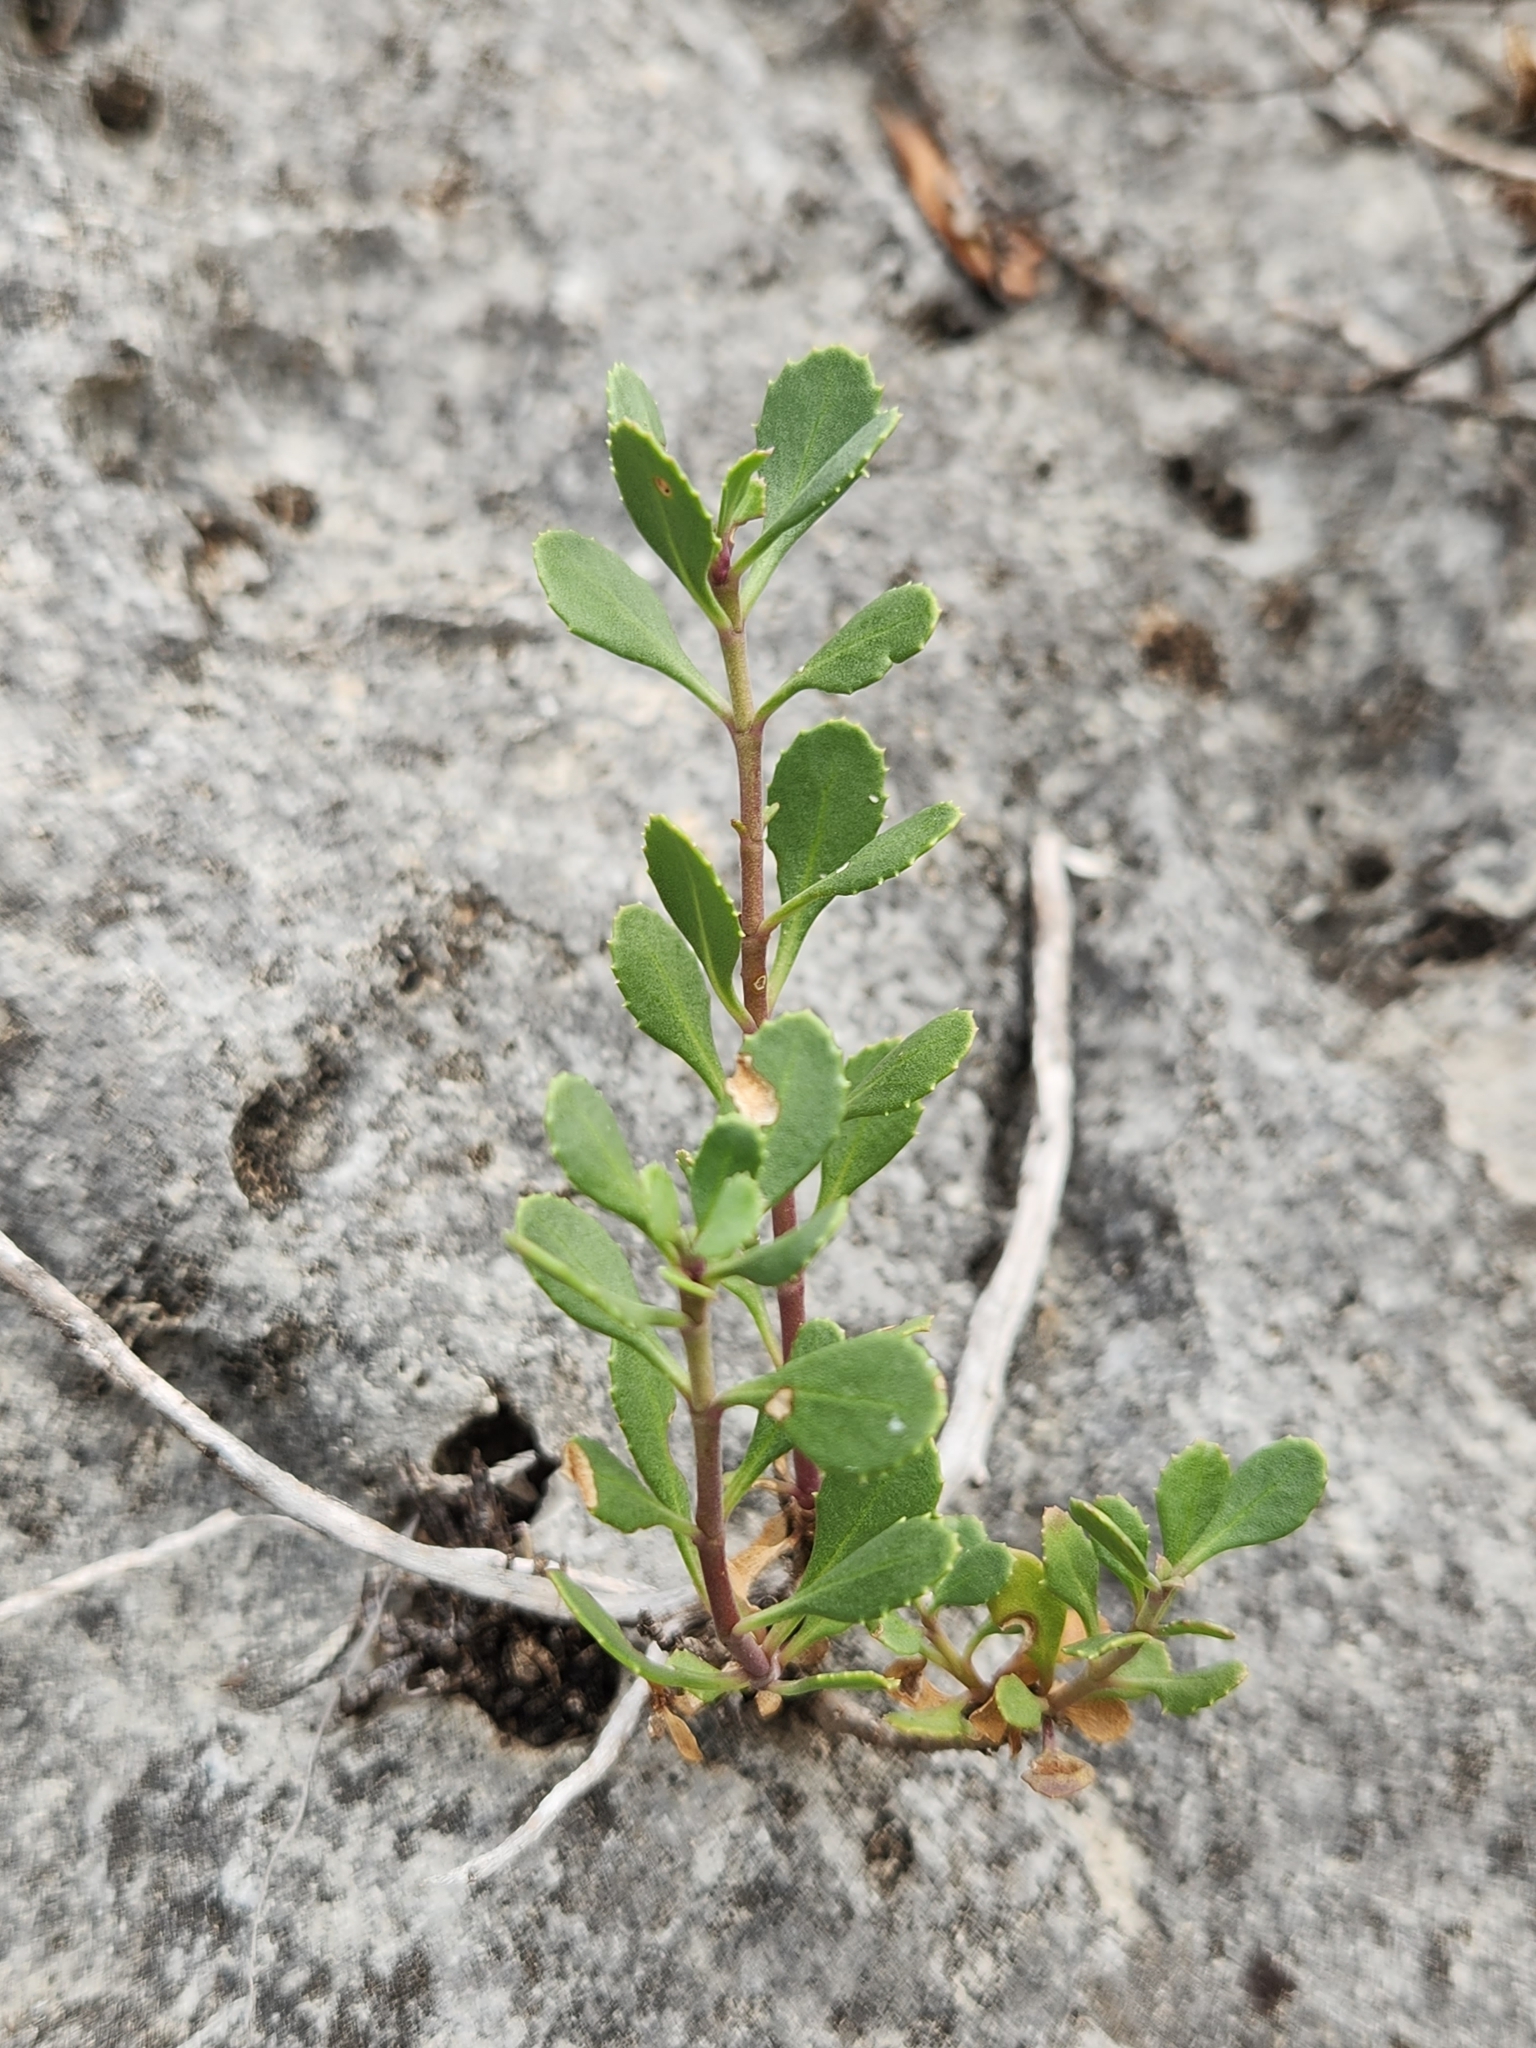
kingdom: Plantae
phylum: Tracheophyta
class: Magnoliopsida
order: Lamiales
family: Plantaginaceae
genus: Penstemon
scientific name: Penstemon baccharifolius
